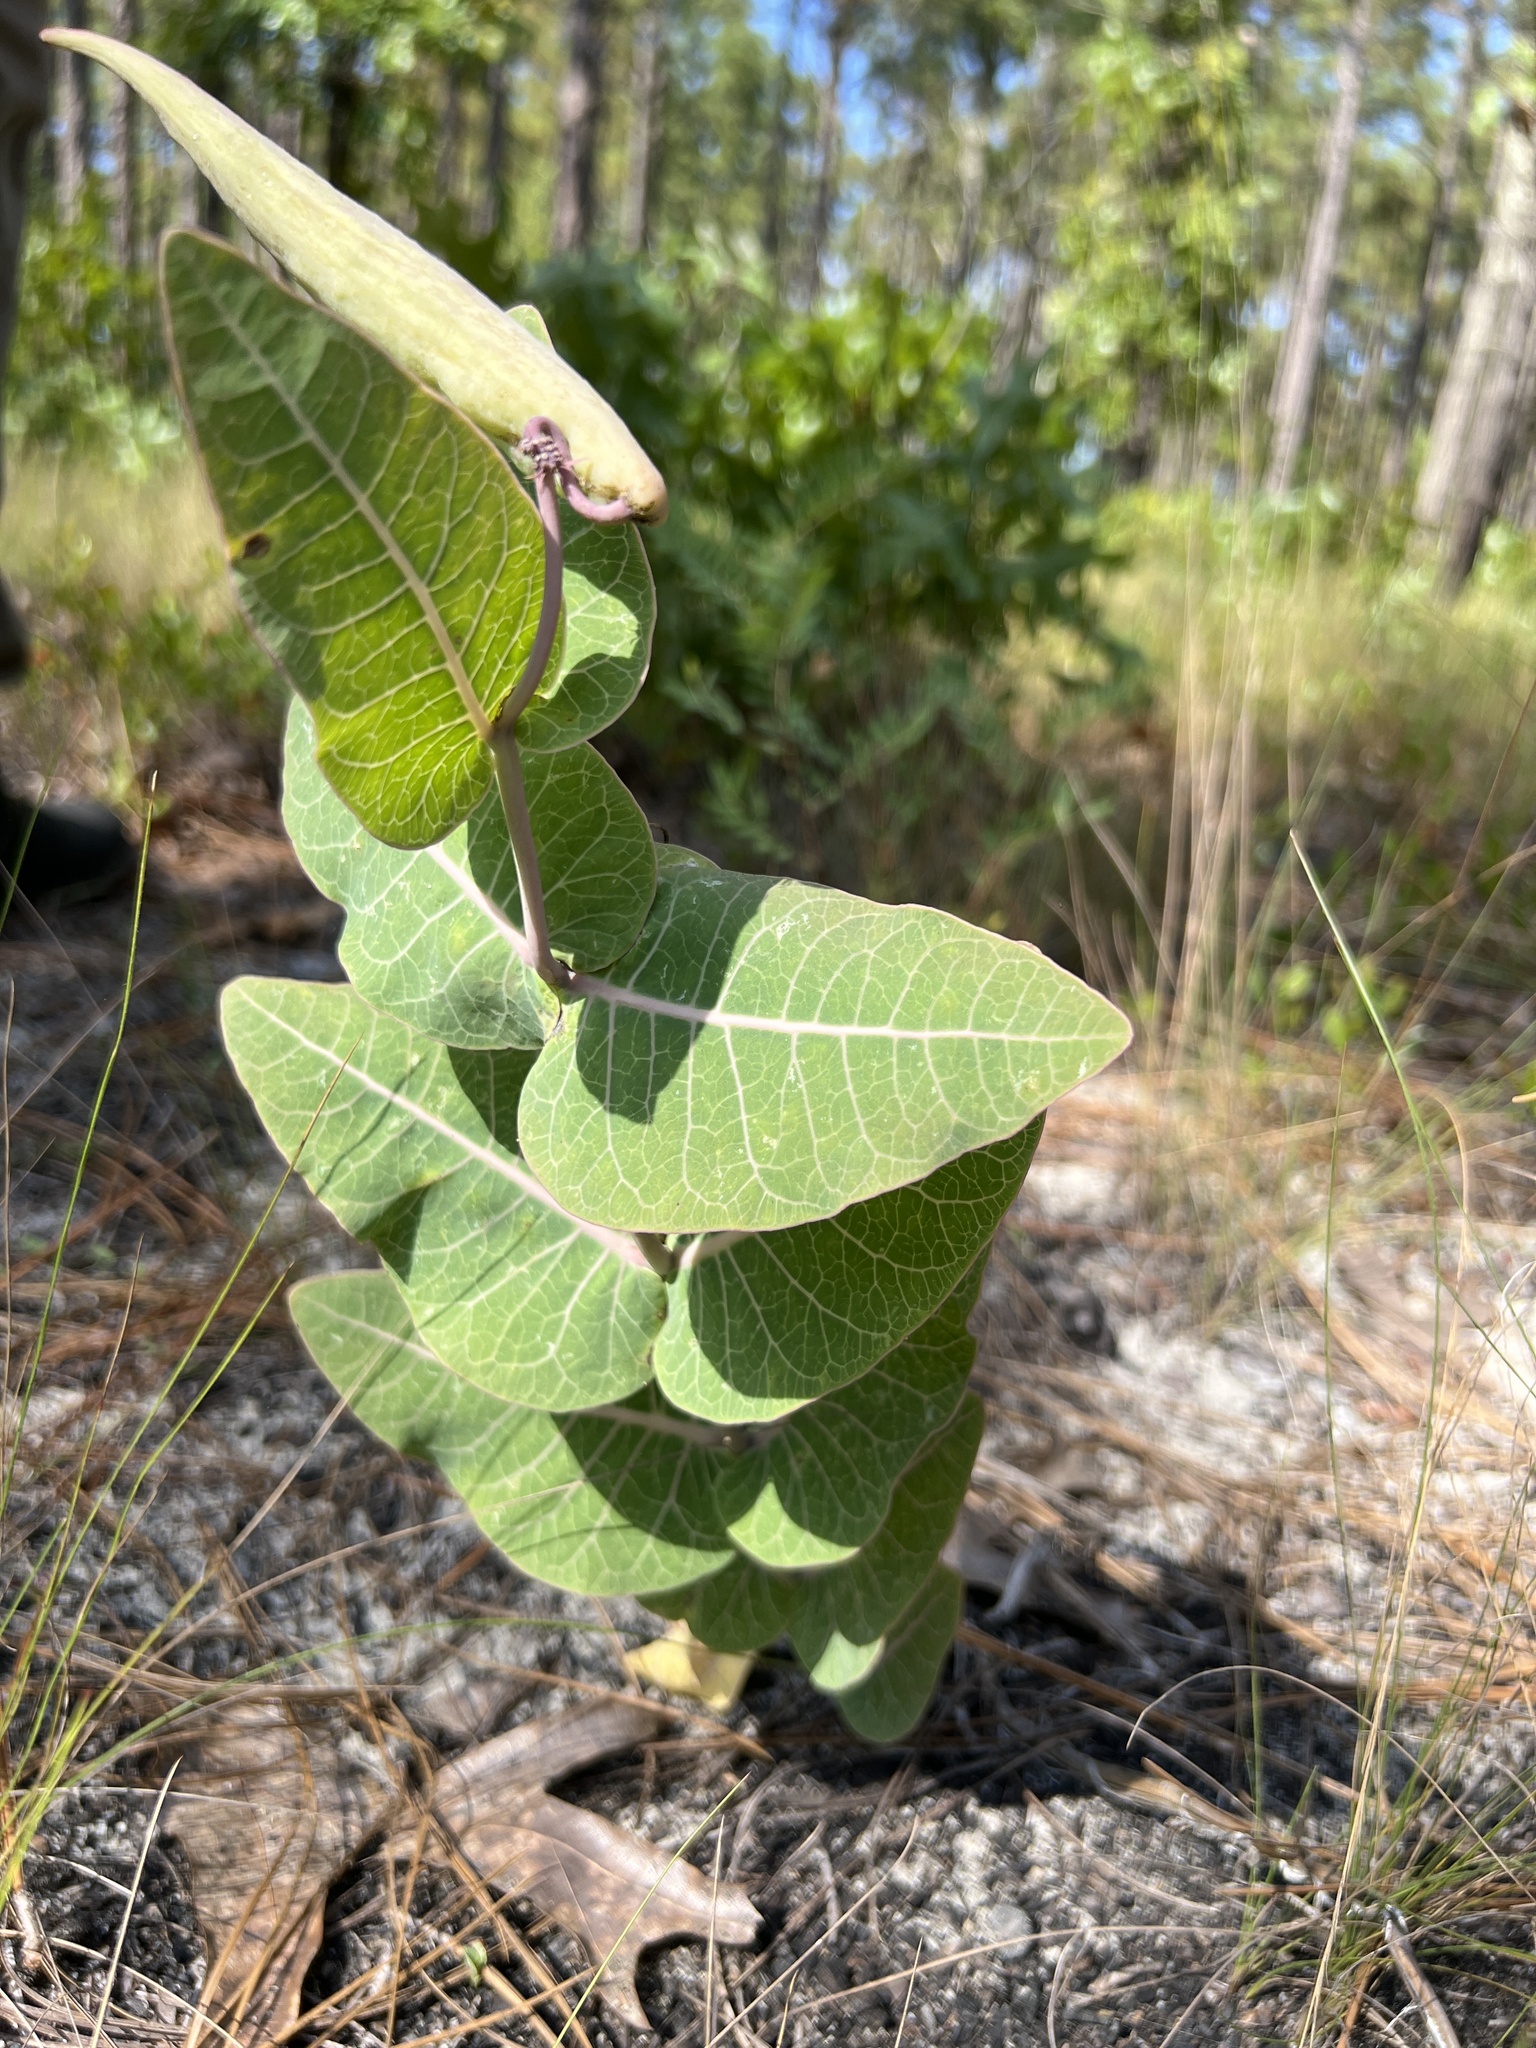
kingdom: Plantae
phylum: Tracheophyta
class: Magnoliopsida
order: Gentianales
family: Apocynaceae
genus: Asclepias
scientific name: Asclepias humistrata
